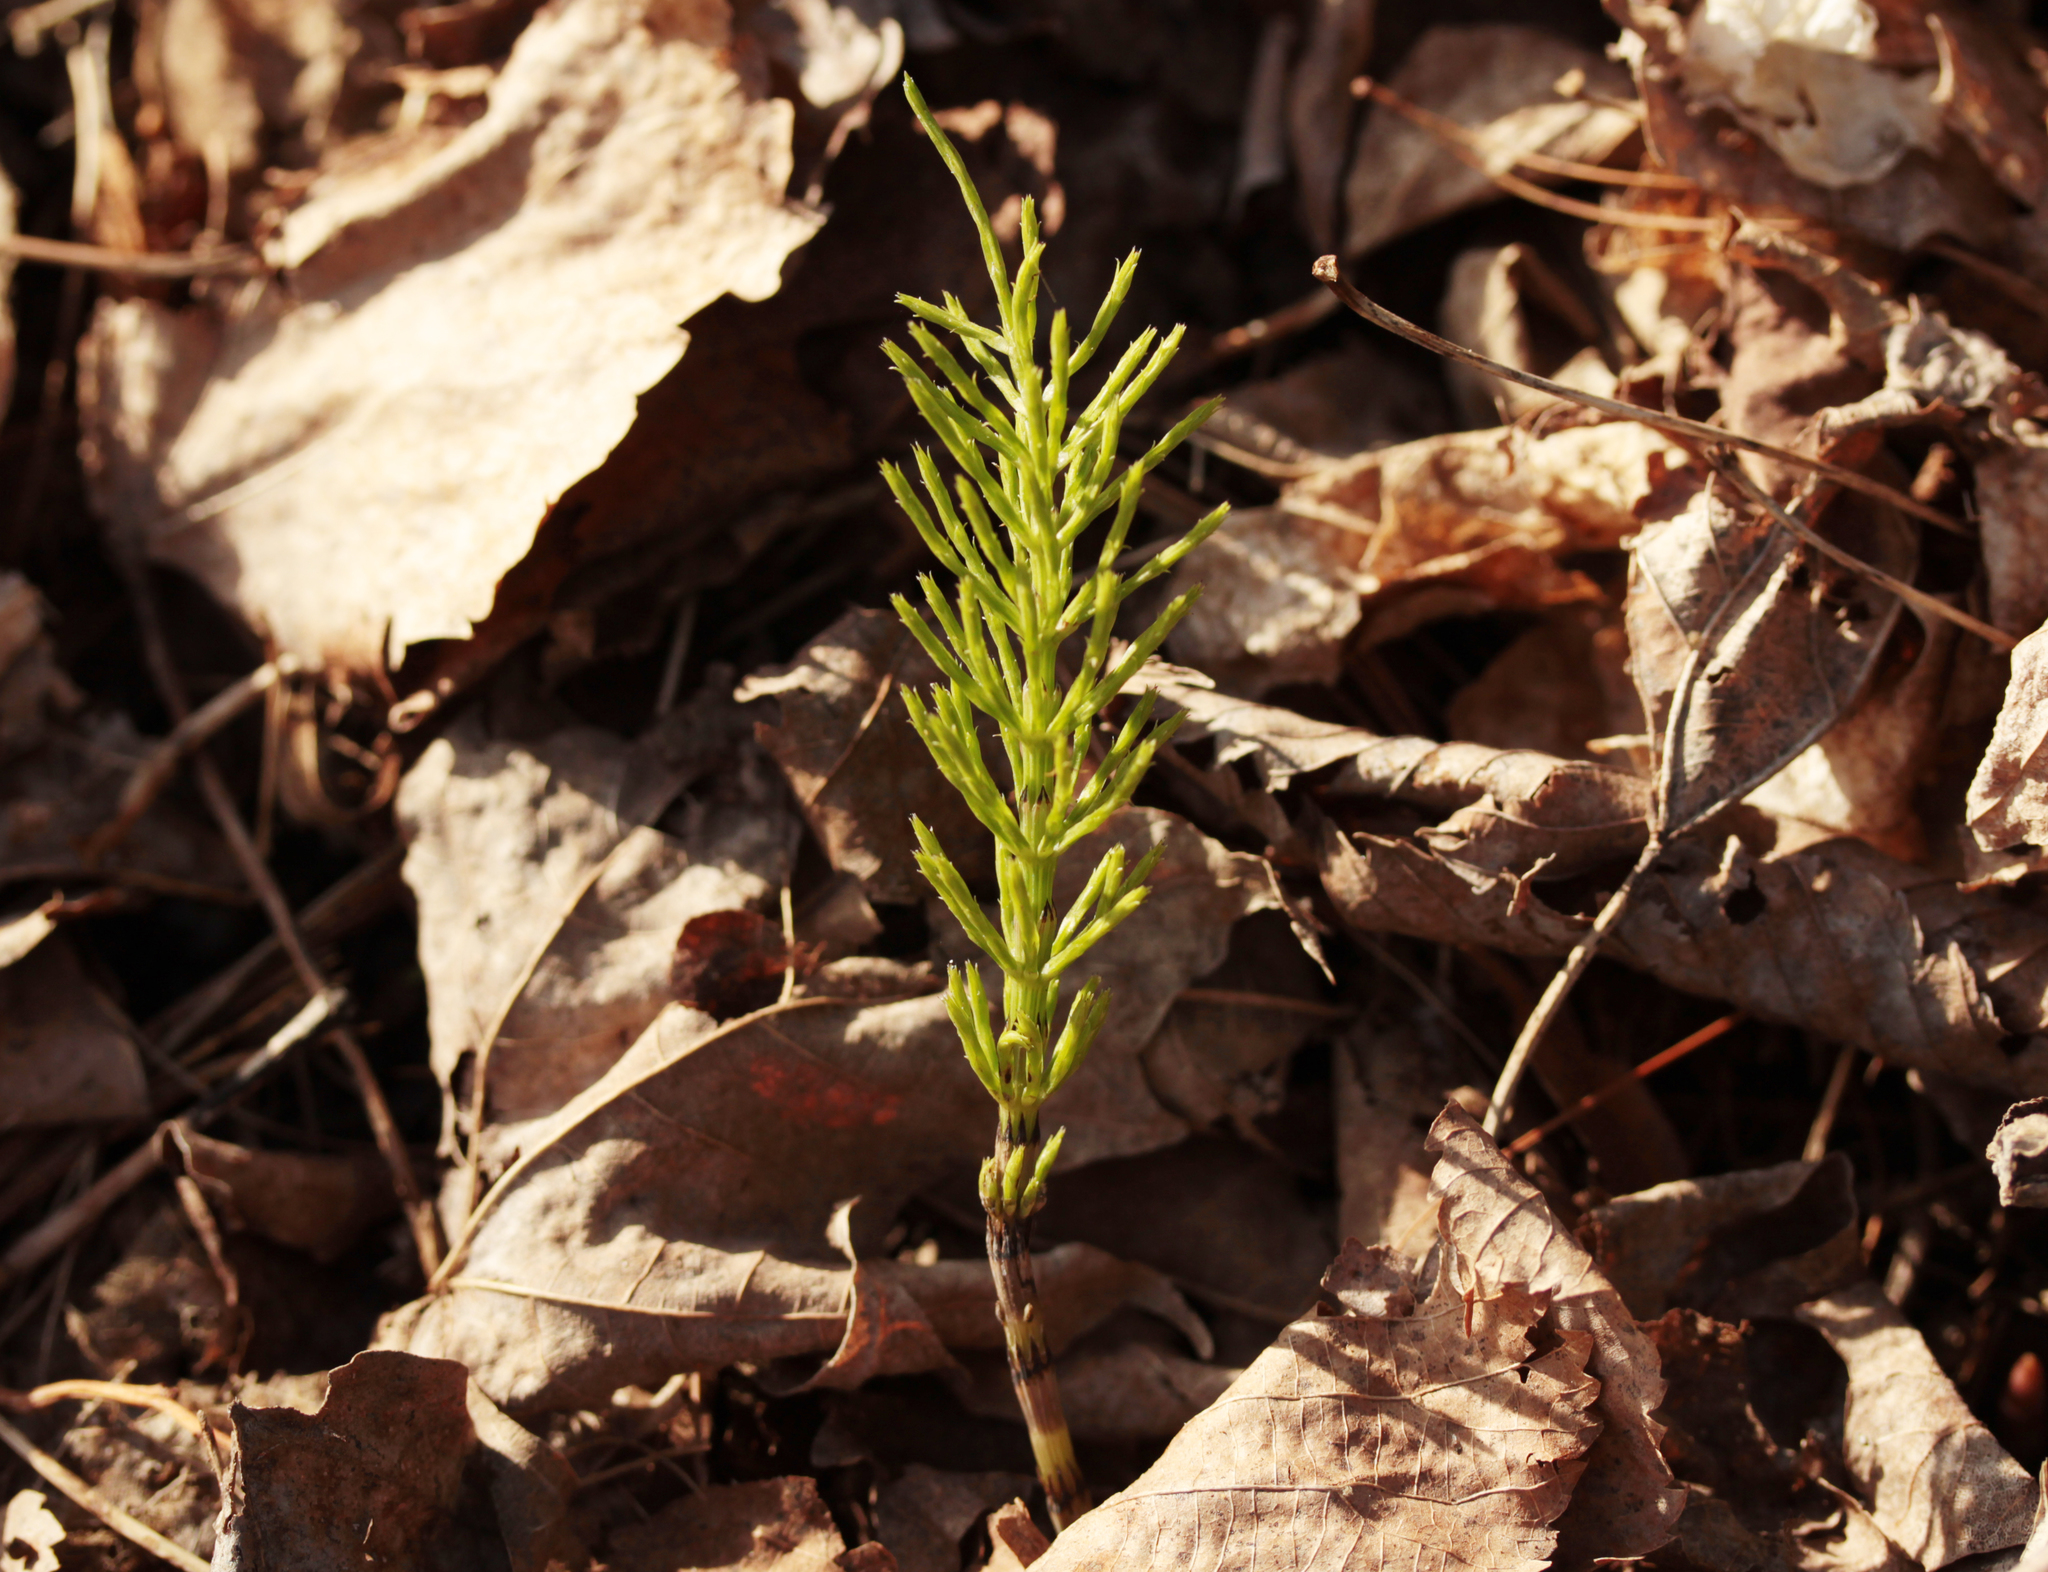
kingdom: Plantae
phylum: Tracheophyta
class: Polypodiopsida
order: Equisetales
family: Equisetaceae
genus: Equisetum
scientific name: Equisetum arvense
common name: Field horsetail
